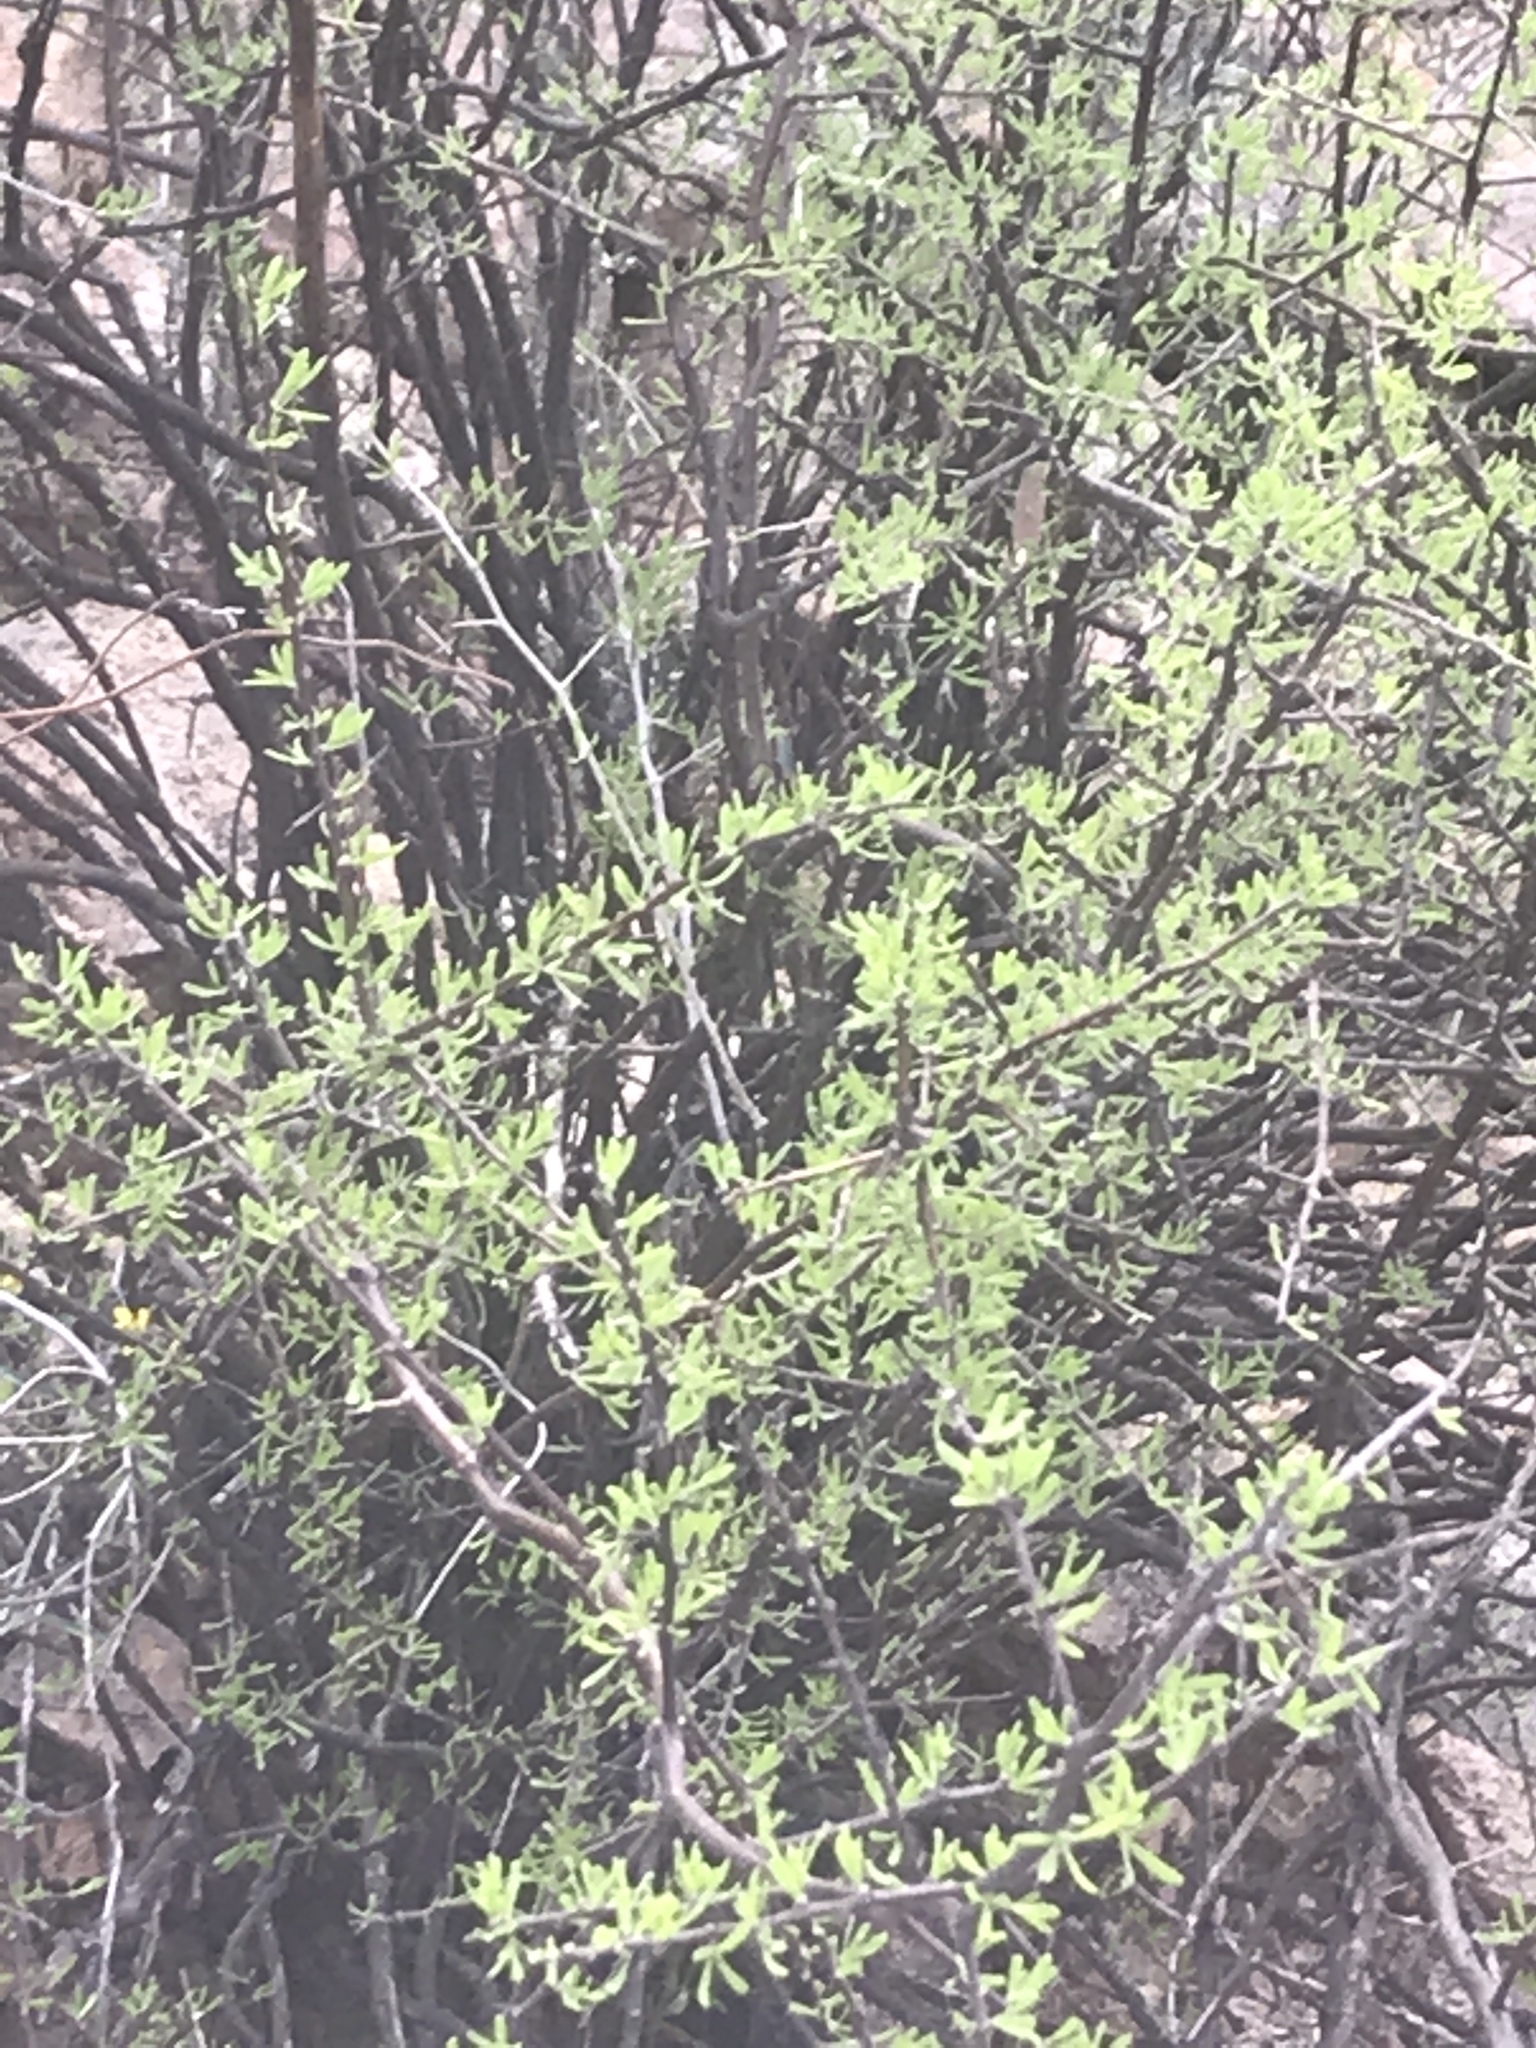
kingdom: Plantae
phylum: Tracheophyta
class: Magnoliopsida
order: Solanales
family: Solanaceae
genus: Lycium
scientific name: Lycium berlandieri
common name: Berlandier wolfberry
